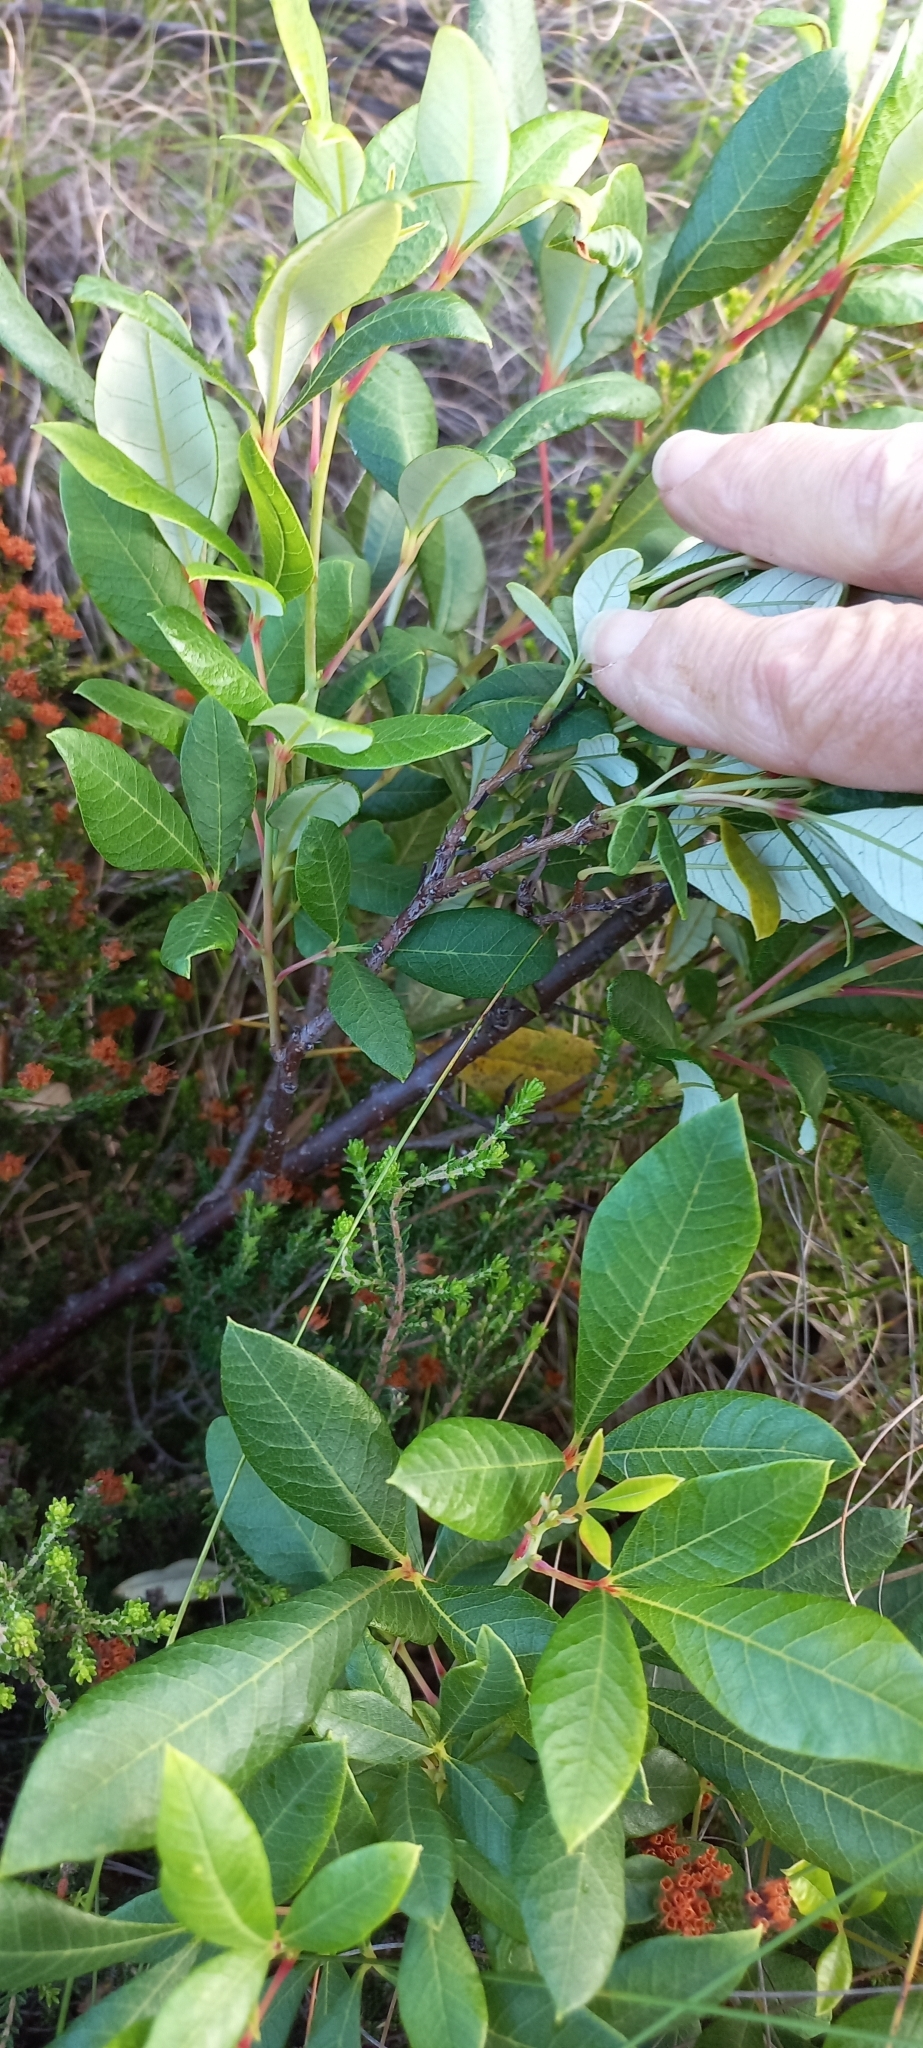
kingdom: Plantae
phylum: Tracheophyta
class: Magnoliopsida
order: Sapindales
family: Anacardiaceae
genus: Searsia
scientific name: Searsia tomentosa
